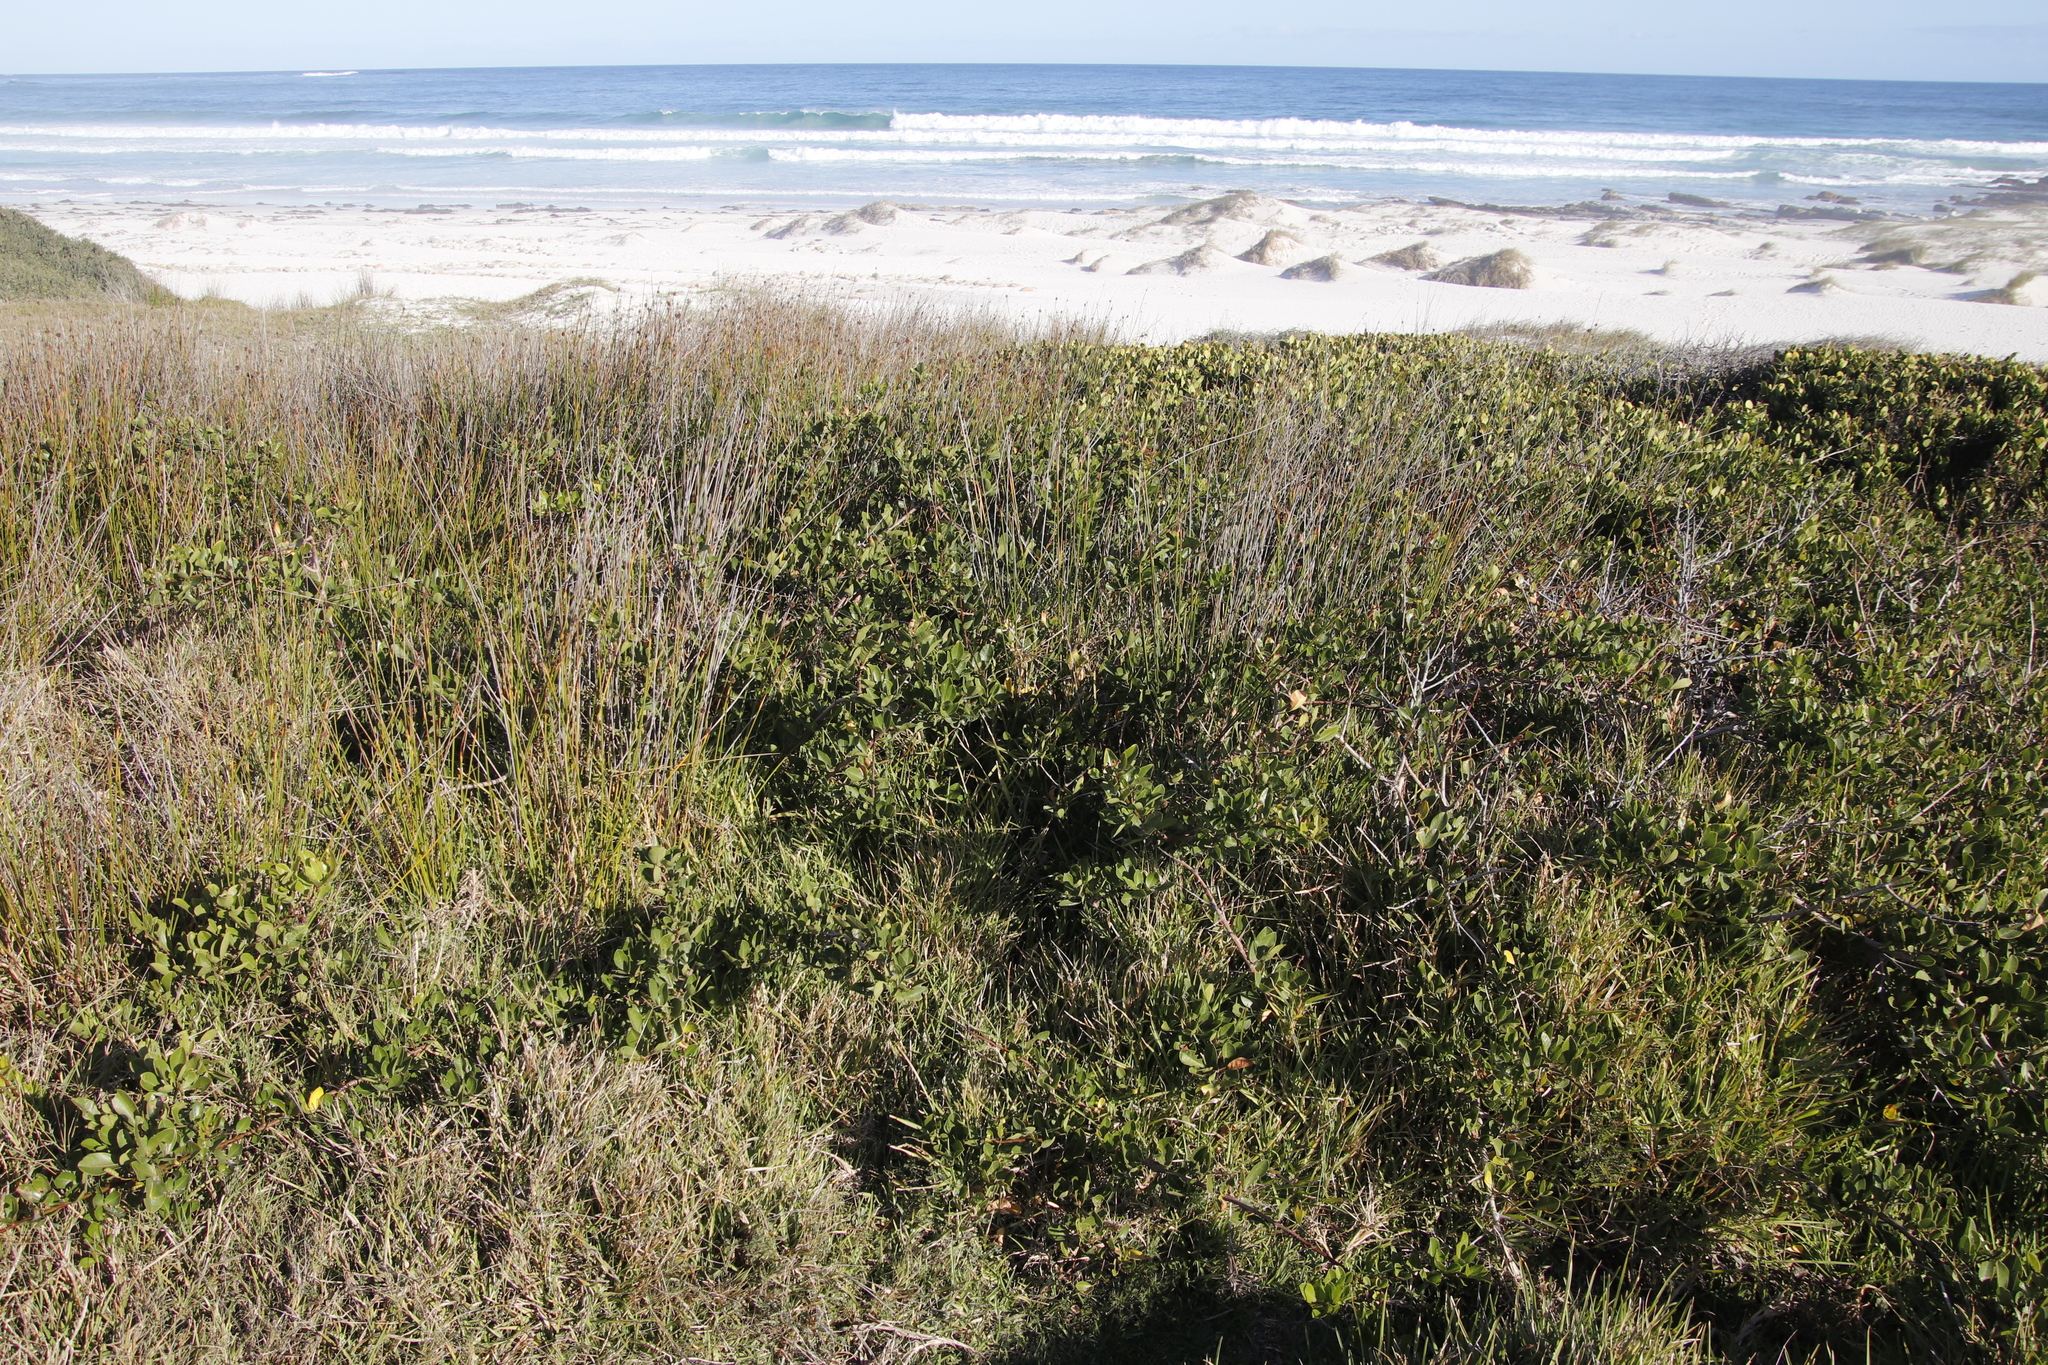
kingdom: Plantae
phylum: Tracheophyta
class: Magnoliopsida
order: Sapindales
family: Anacardiaceae
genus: Searsia
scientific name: Searsia laevigata
